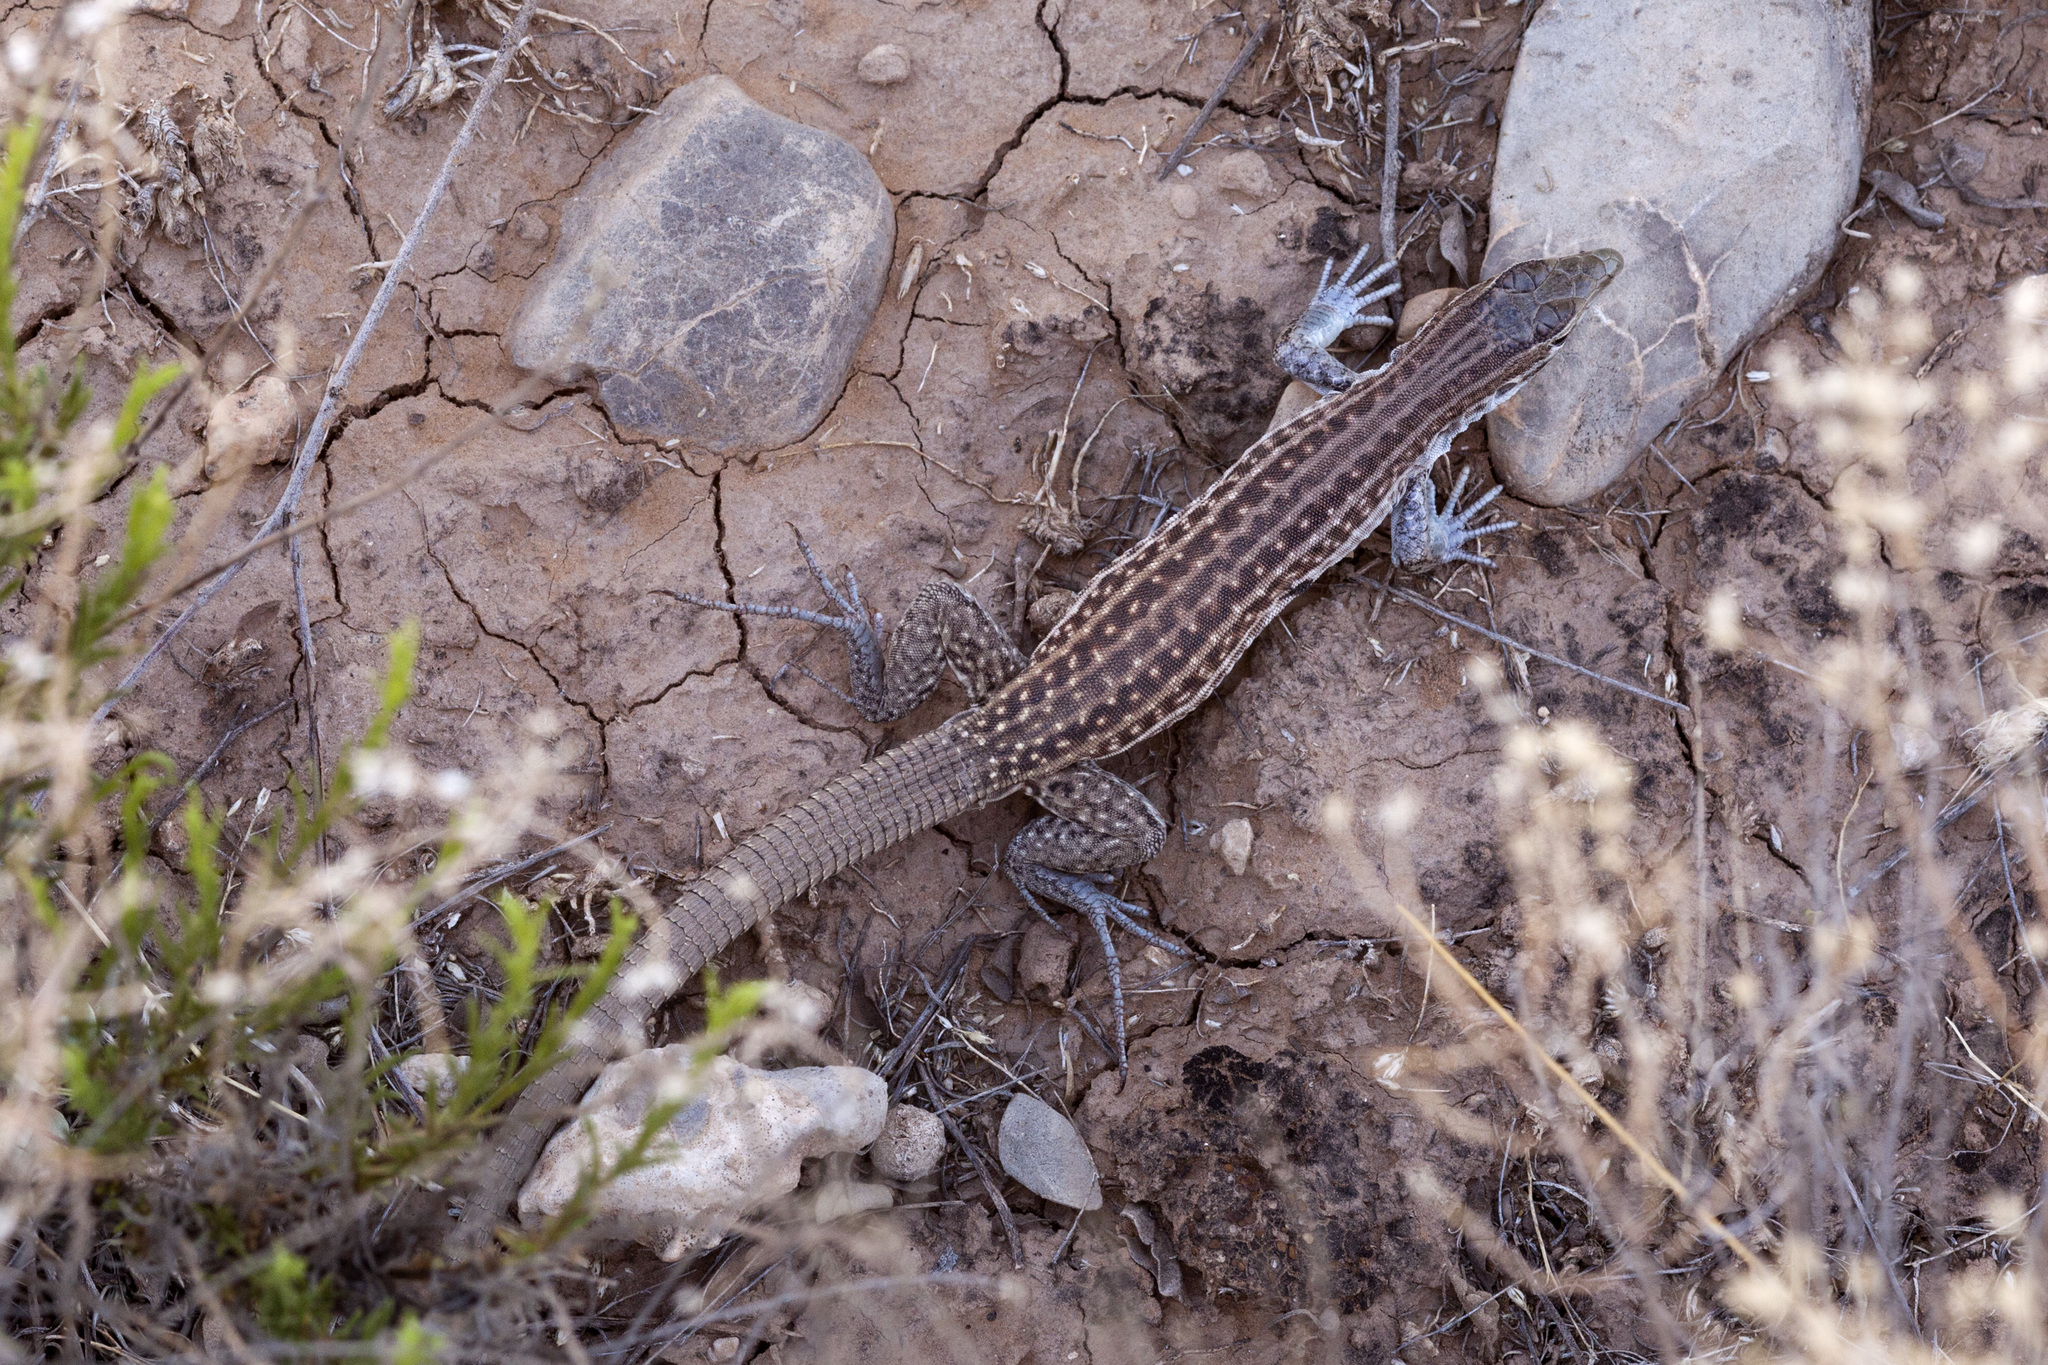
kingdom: Animalia
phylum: Chordata
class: Squamata
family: Teiidae
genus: Aspidoscelis
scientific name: Aspidoscelis exsanguis
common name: Chihuahuan spotted whiptail
